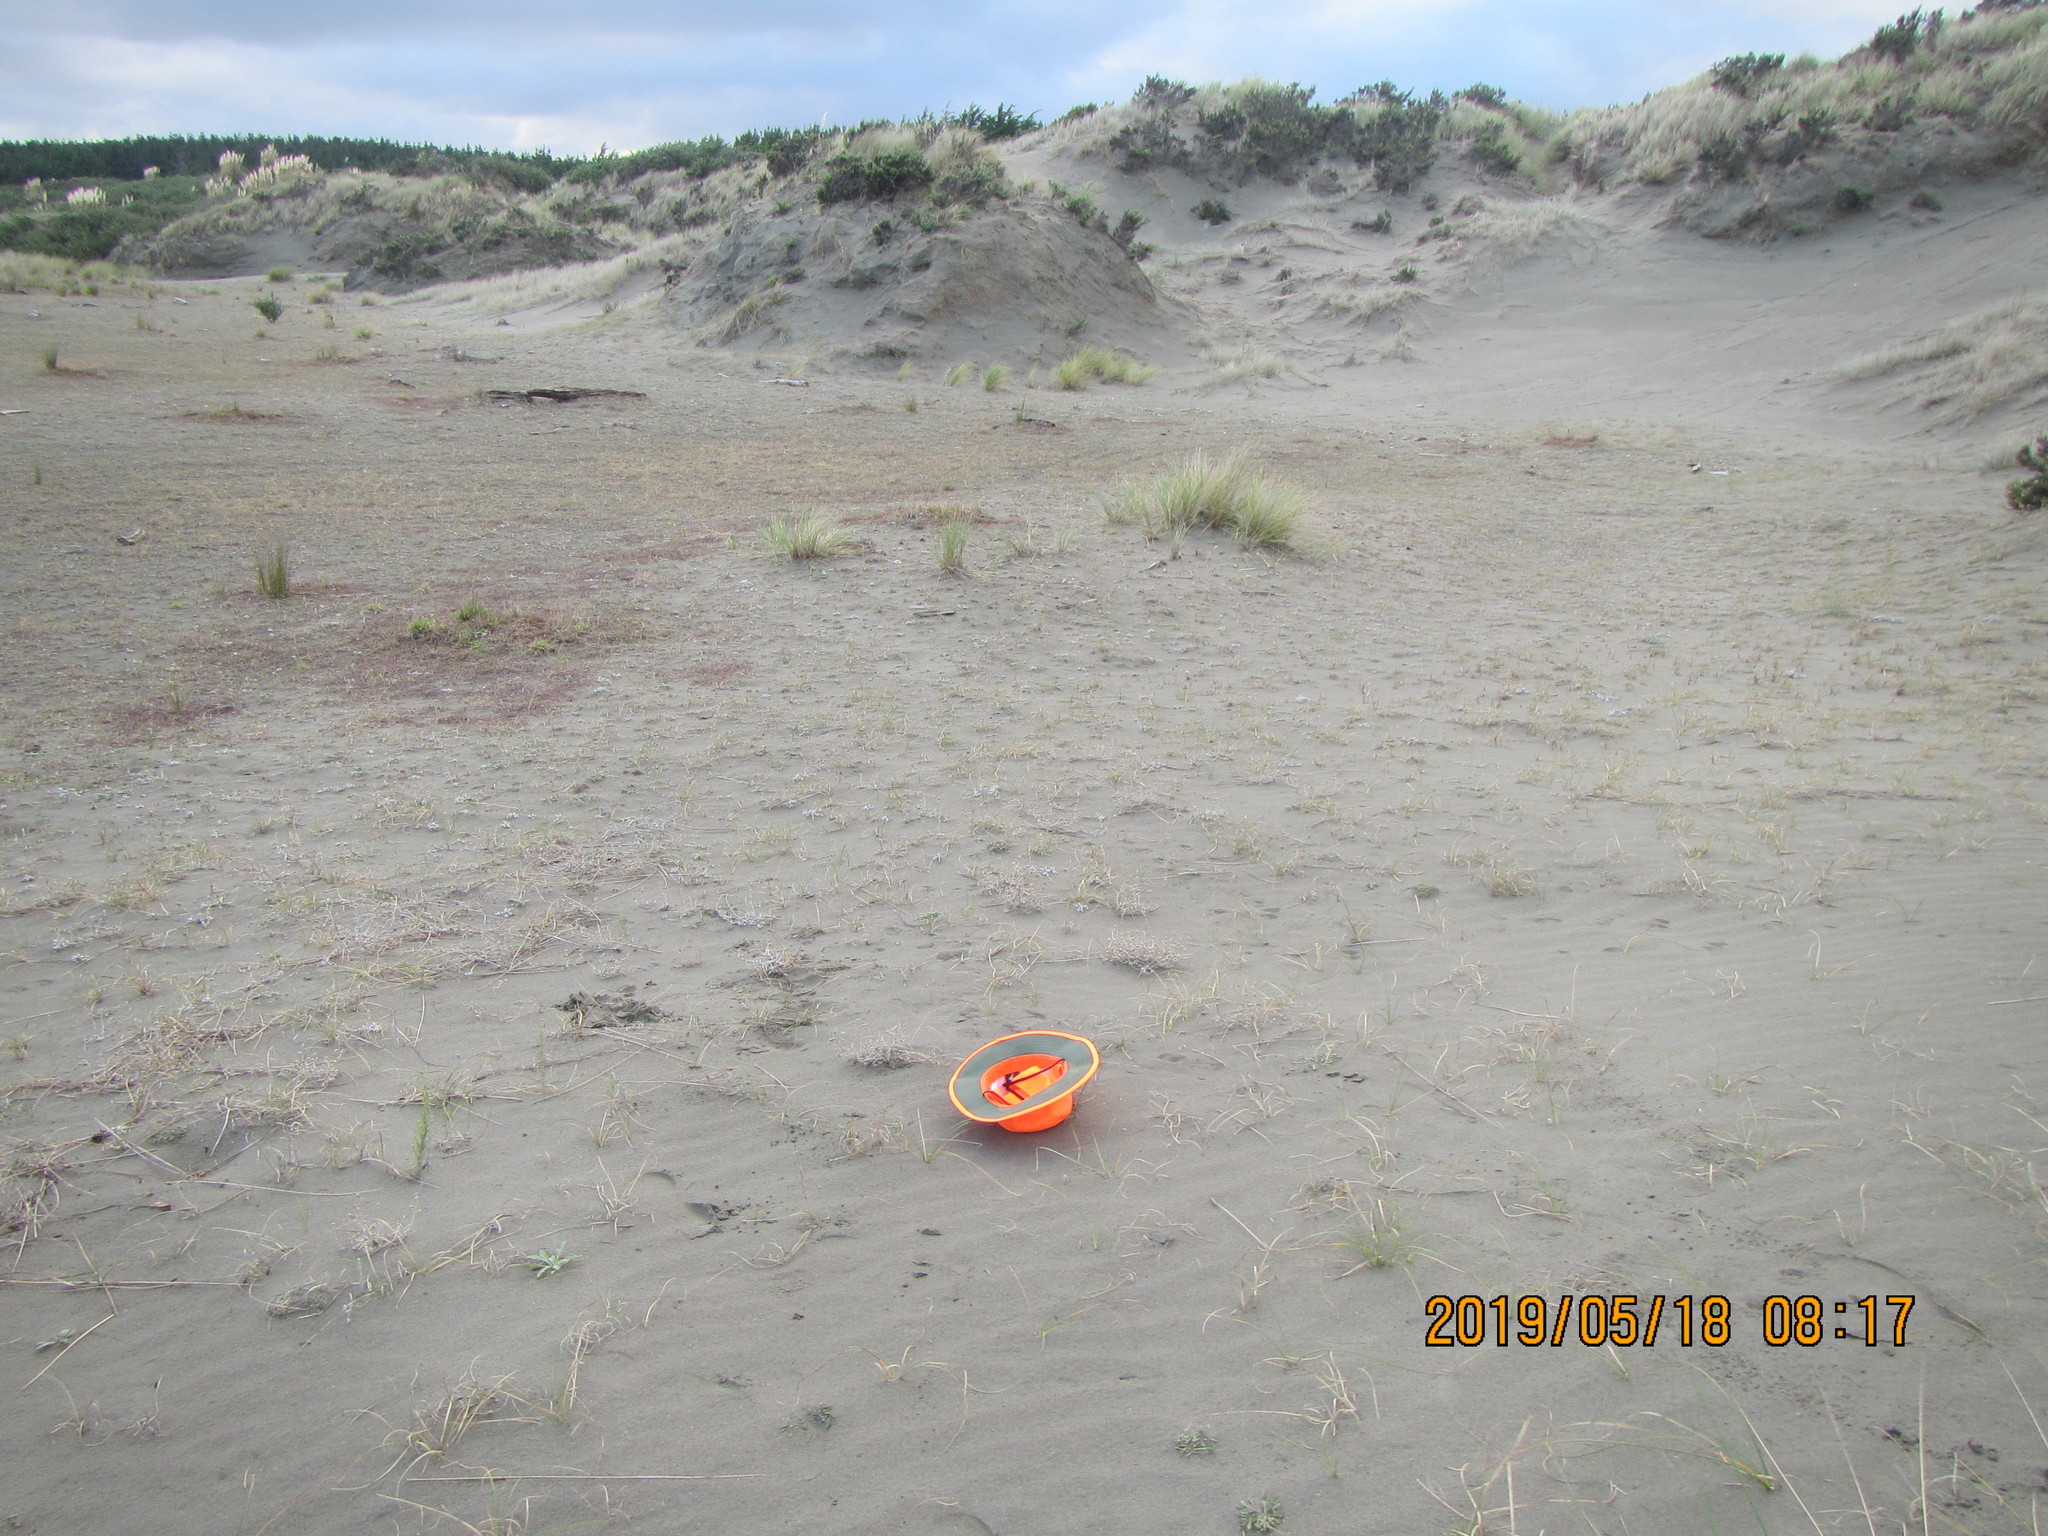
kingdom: Plantae
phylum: Tracheophyta
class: Magnoliopsida
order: Asterales
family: Asteraceae
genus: Helichrysum
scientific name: Helichrysum luteoalbum
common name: Daisy
